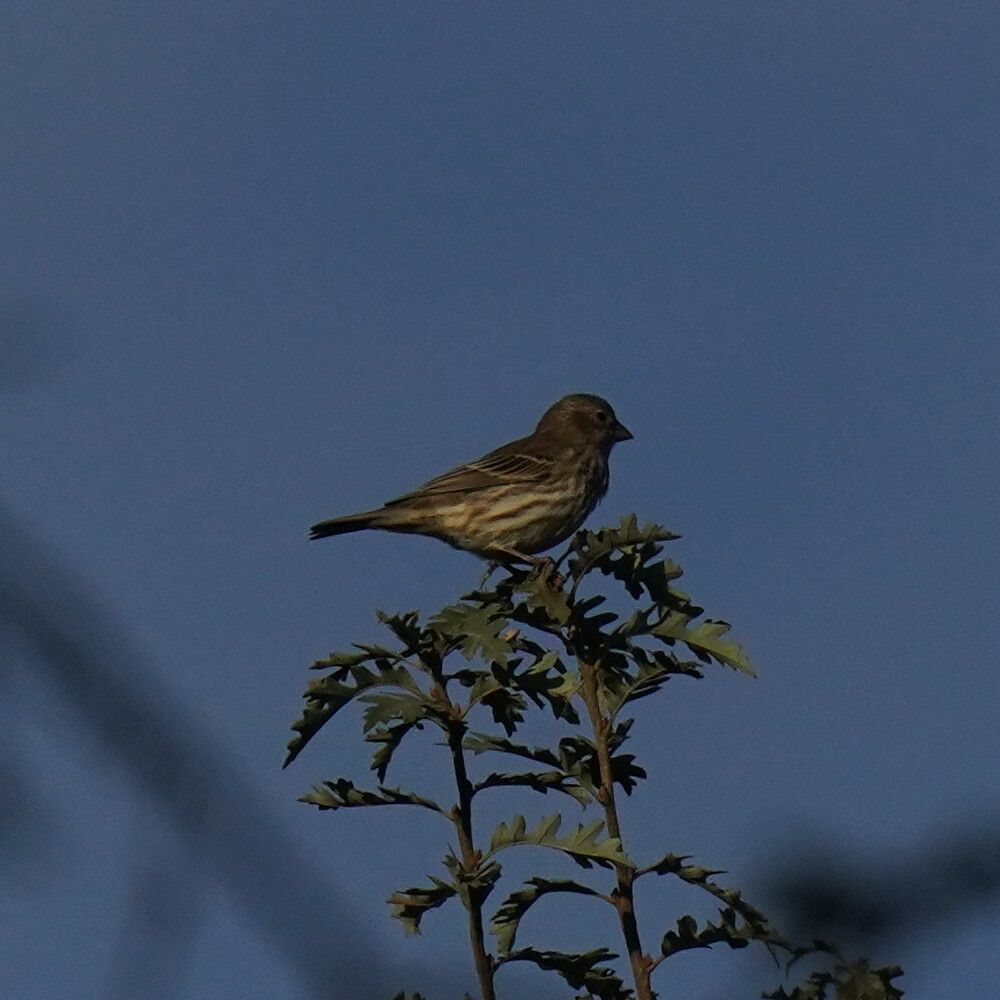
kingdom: Animalia
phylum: Chordata
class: Aves
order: Passeriformes
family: Fringillidae
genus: Haemorhous
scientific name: Haemorhous mexicanus
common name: House finch
